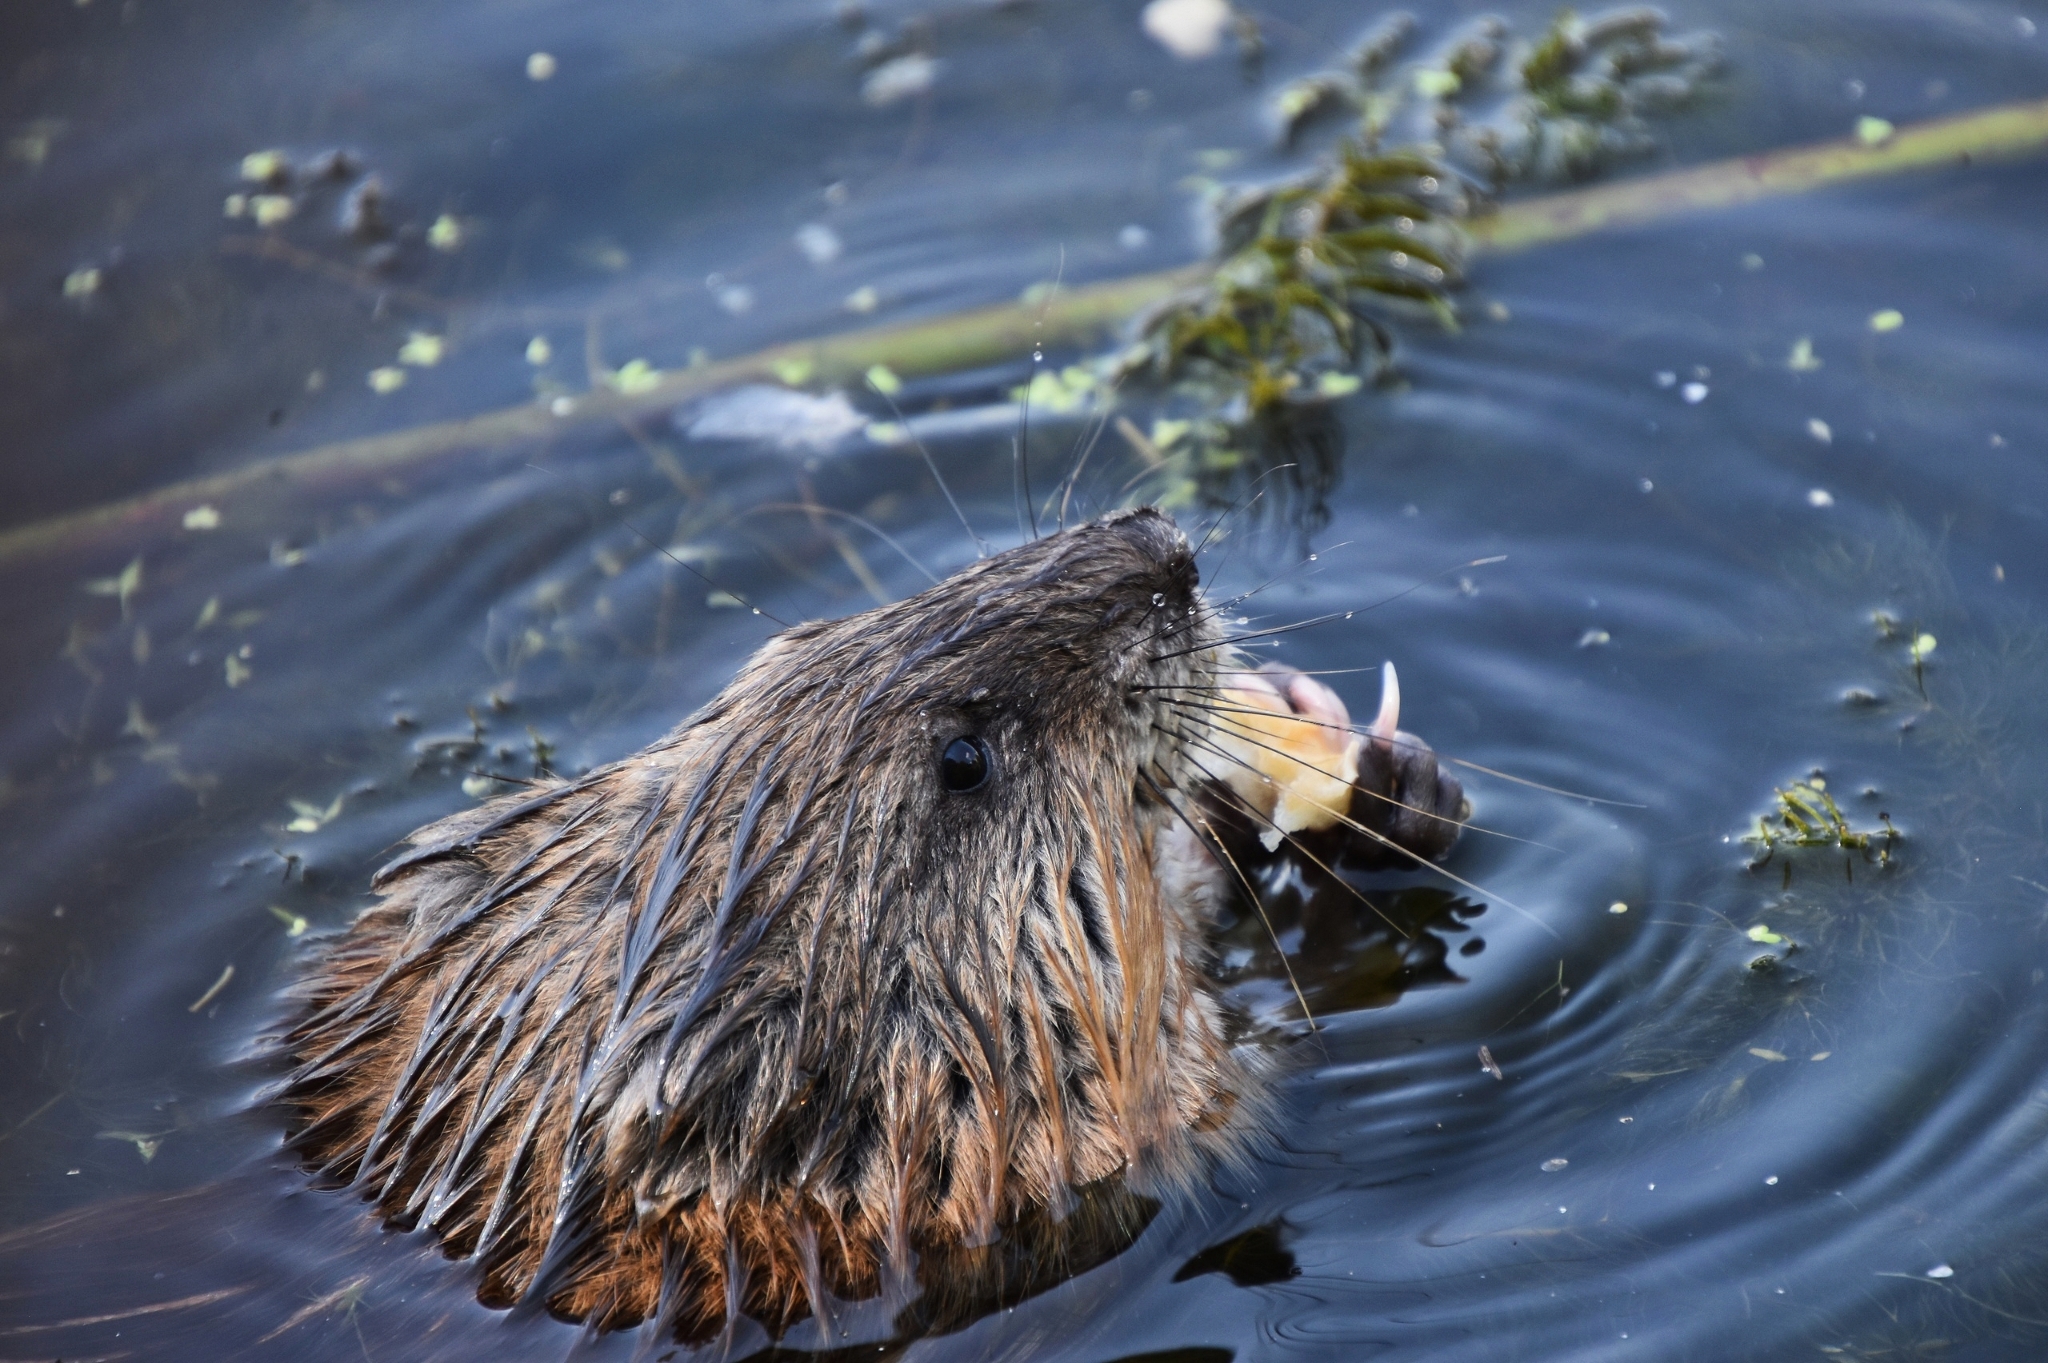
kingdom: Animalia
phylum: Chordata
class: Mammalia
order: Rodentia
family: Cricetidae
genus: Ondatra
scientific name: Ondatra zibethicus
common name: Muskrat
